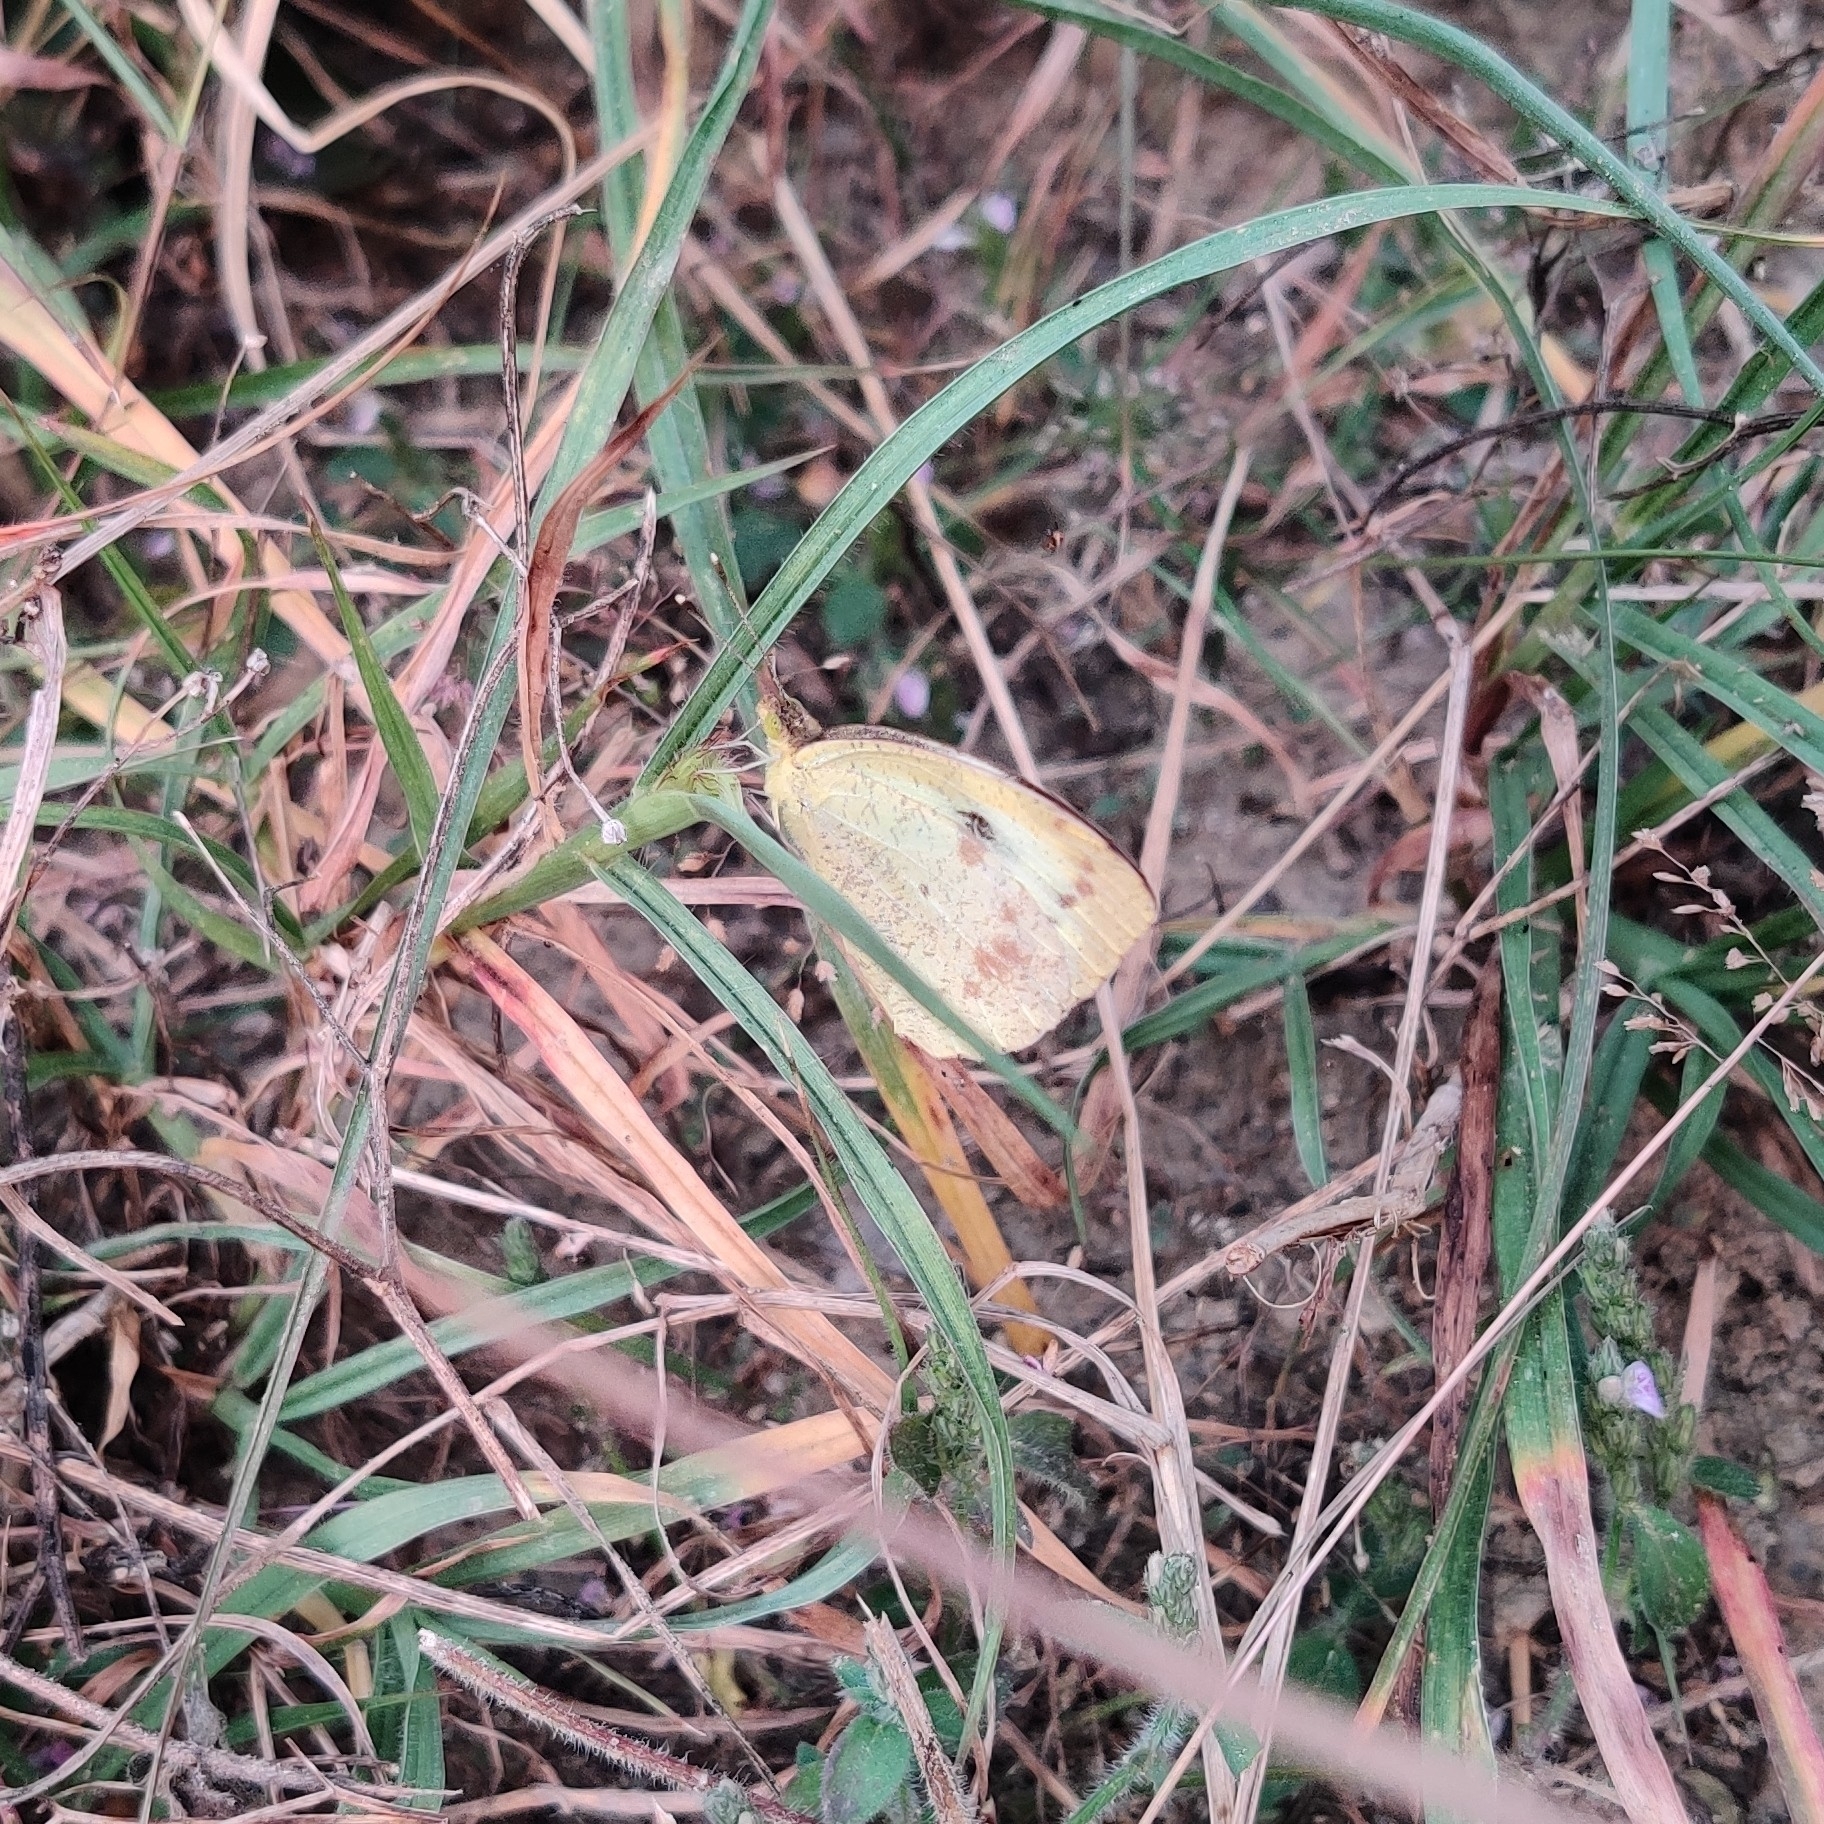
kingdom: Animalia
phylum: Arthropoda
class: Insecta
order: Lepidoptera
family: Pieridae
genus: Ixias
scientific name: Ixias pyrene
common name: Yellow orange tip
